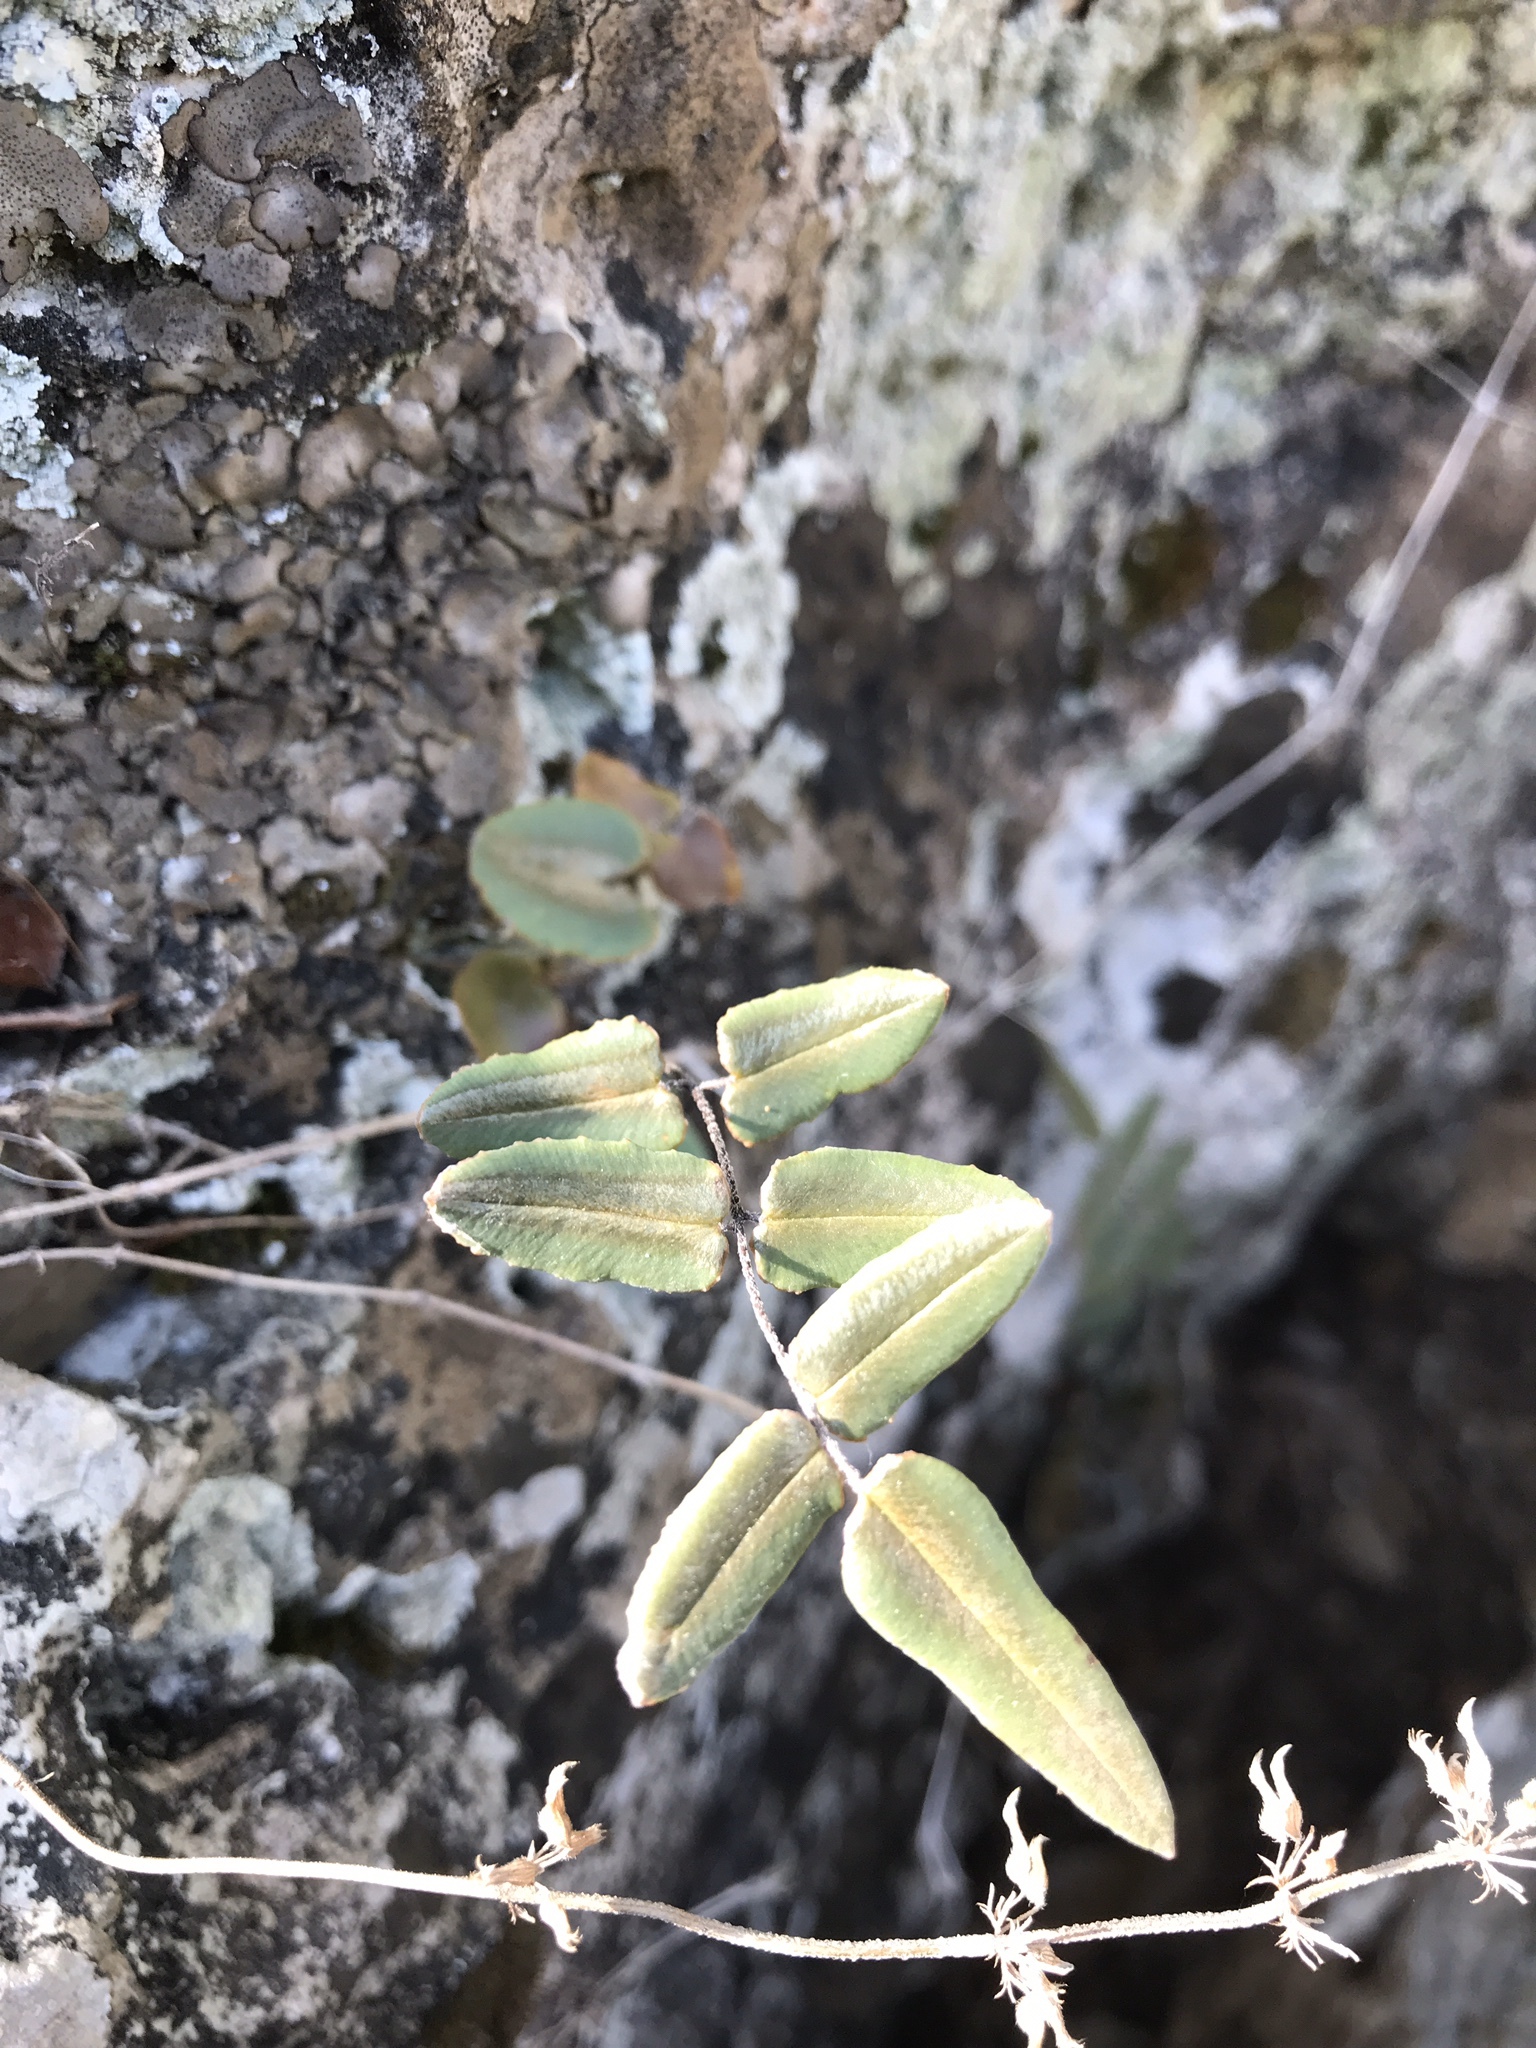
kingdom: Plantae
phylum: Tracheophyta
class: Polypodiopsida
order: Polypodiales
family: Pteridaceae
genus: Pellaea
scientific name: Pellaea atropurpurea
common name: Hairy cliffbrake
